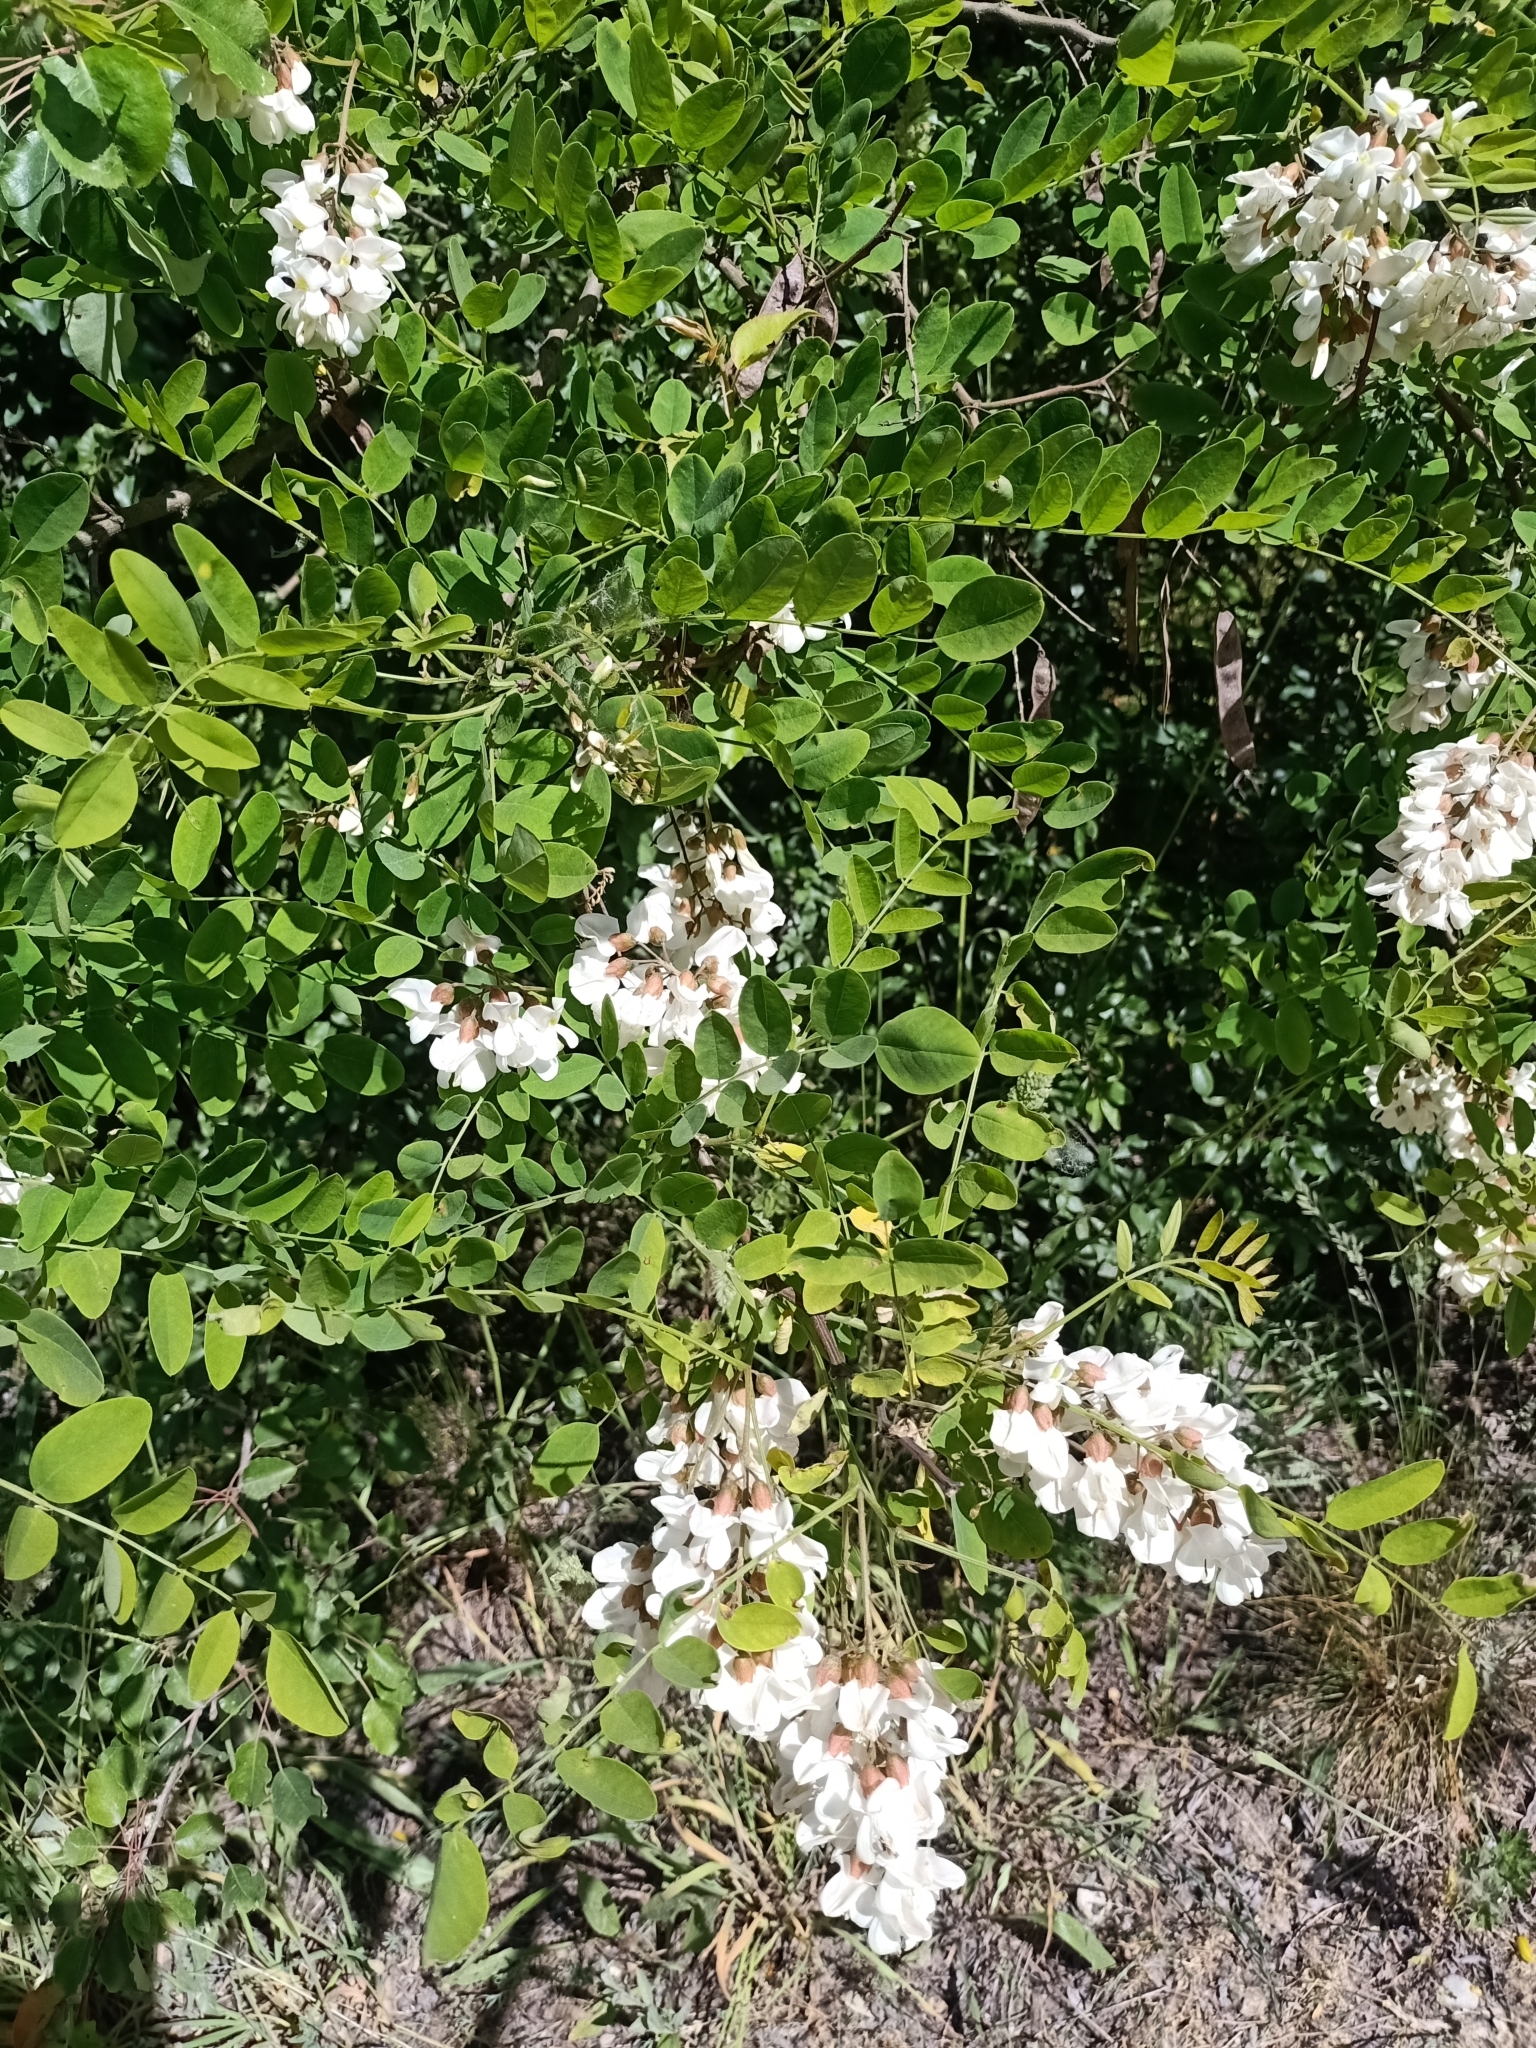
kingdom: Plantae
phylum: Tracheophyta
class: Magnoliopsida
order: Fabales
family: Fabaceae
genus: Robinia
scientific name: Robinia pseudoacacia
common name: Black locust
